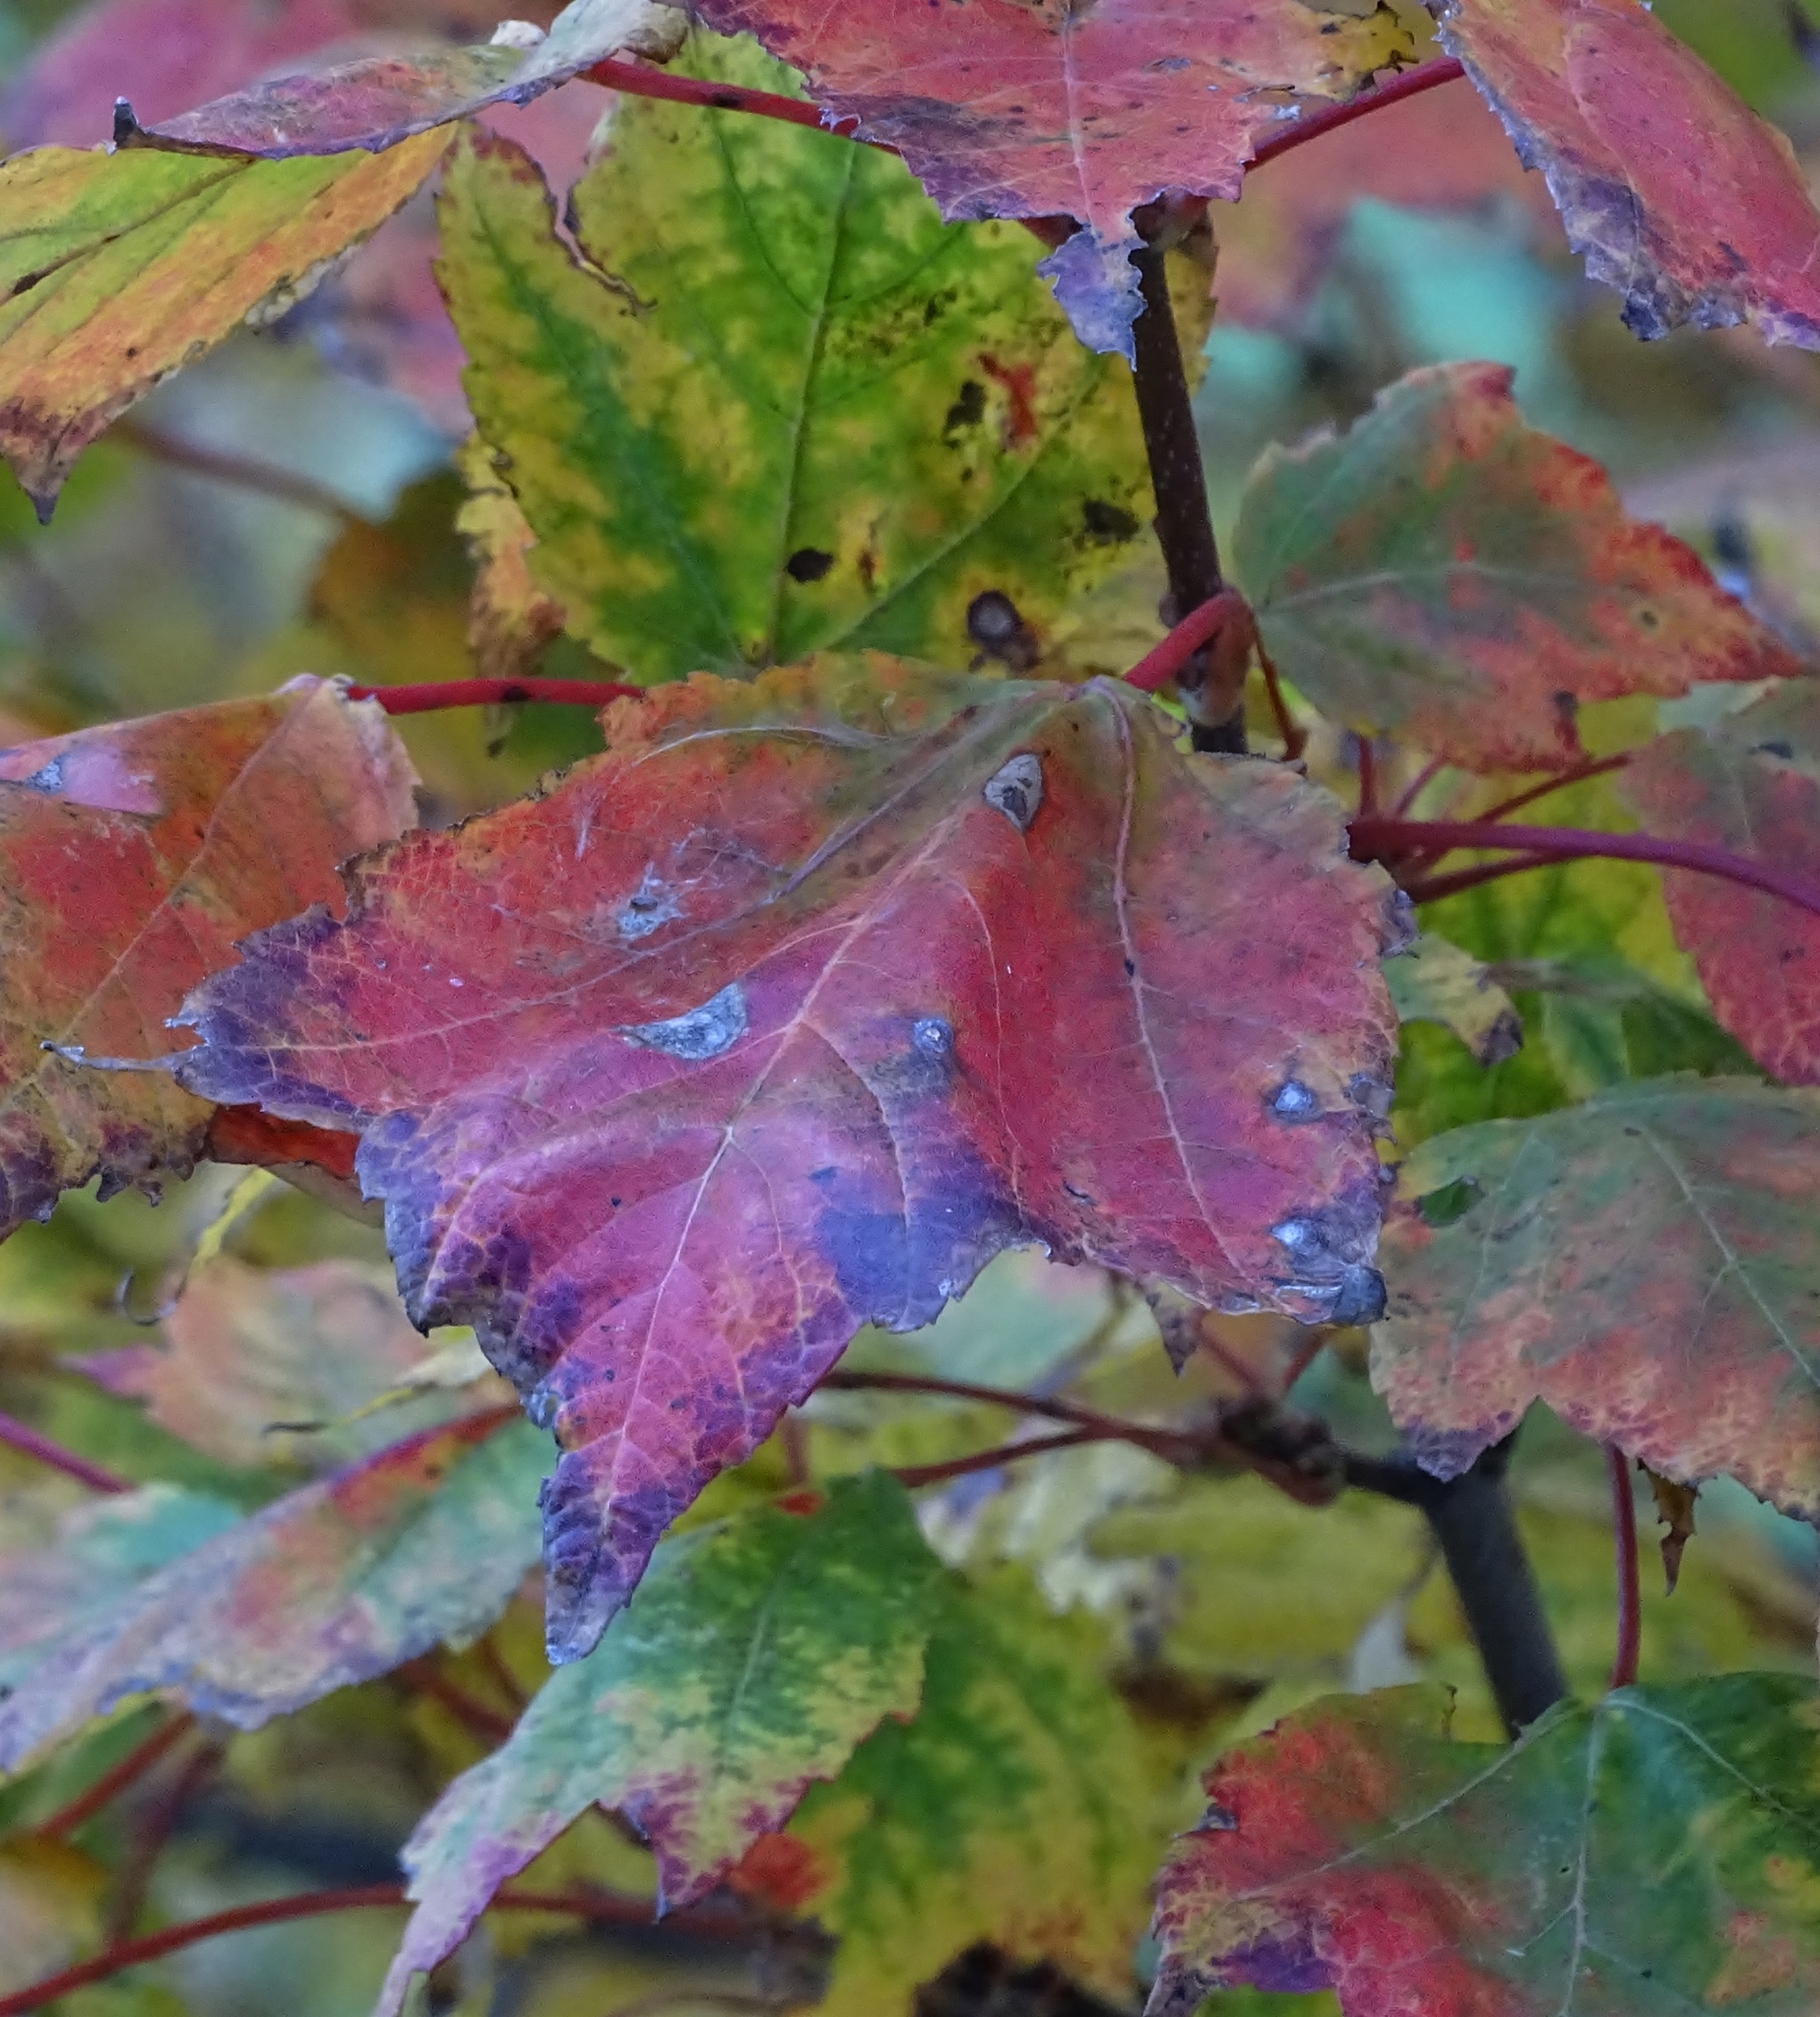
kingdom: Plantae
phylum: Tracheophyta
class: Magnoliopsida
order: Sapindales
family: Sapindaceae
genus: Acer
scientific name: Acer rubrum
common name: Red maple
